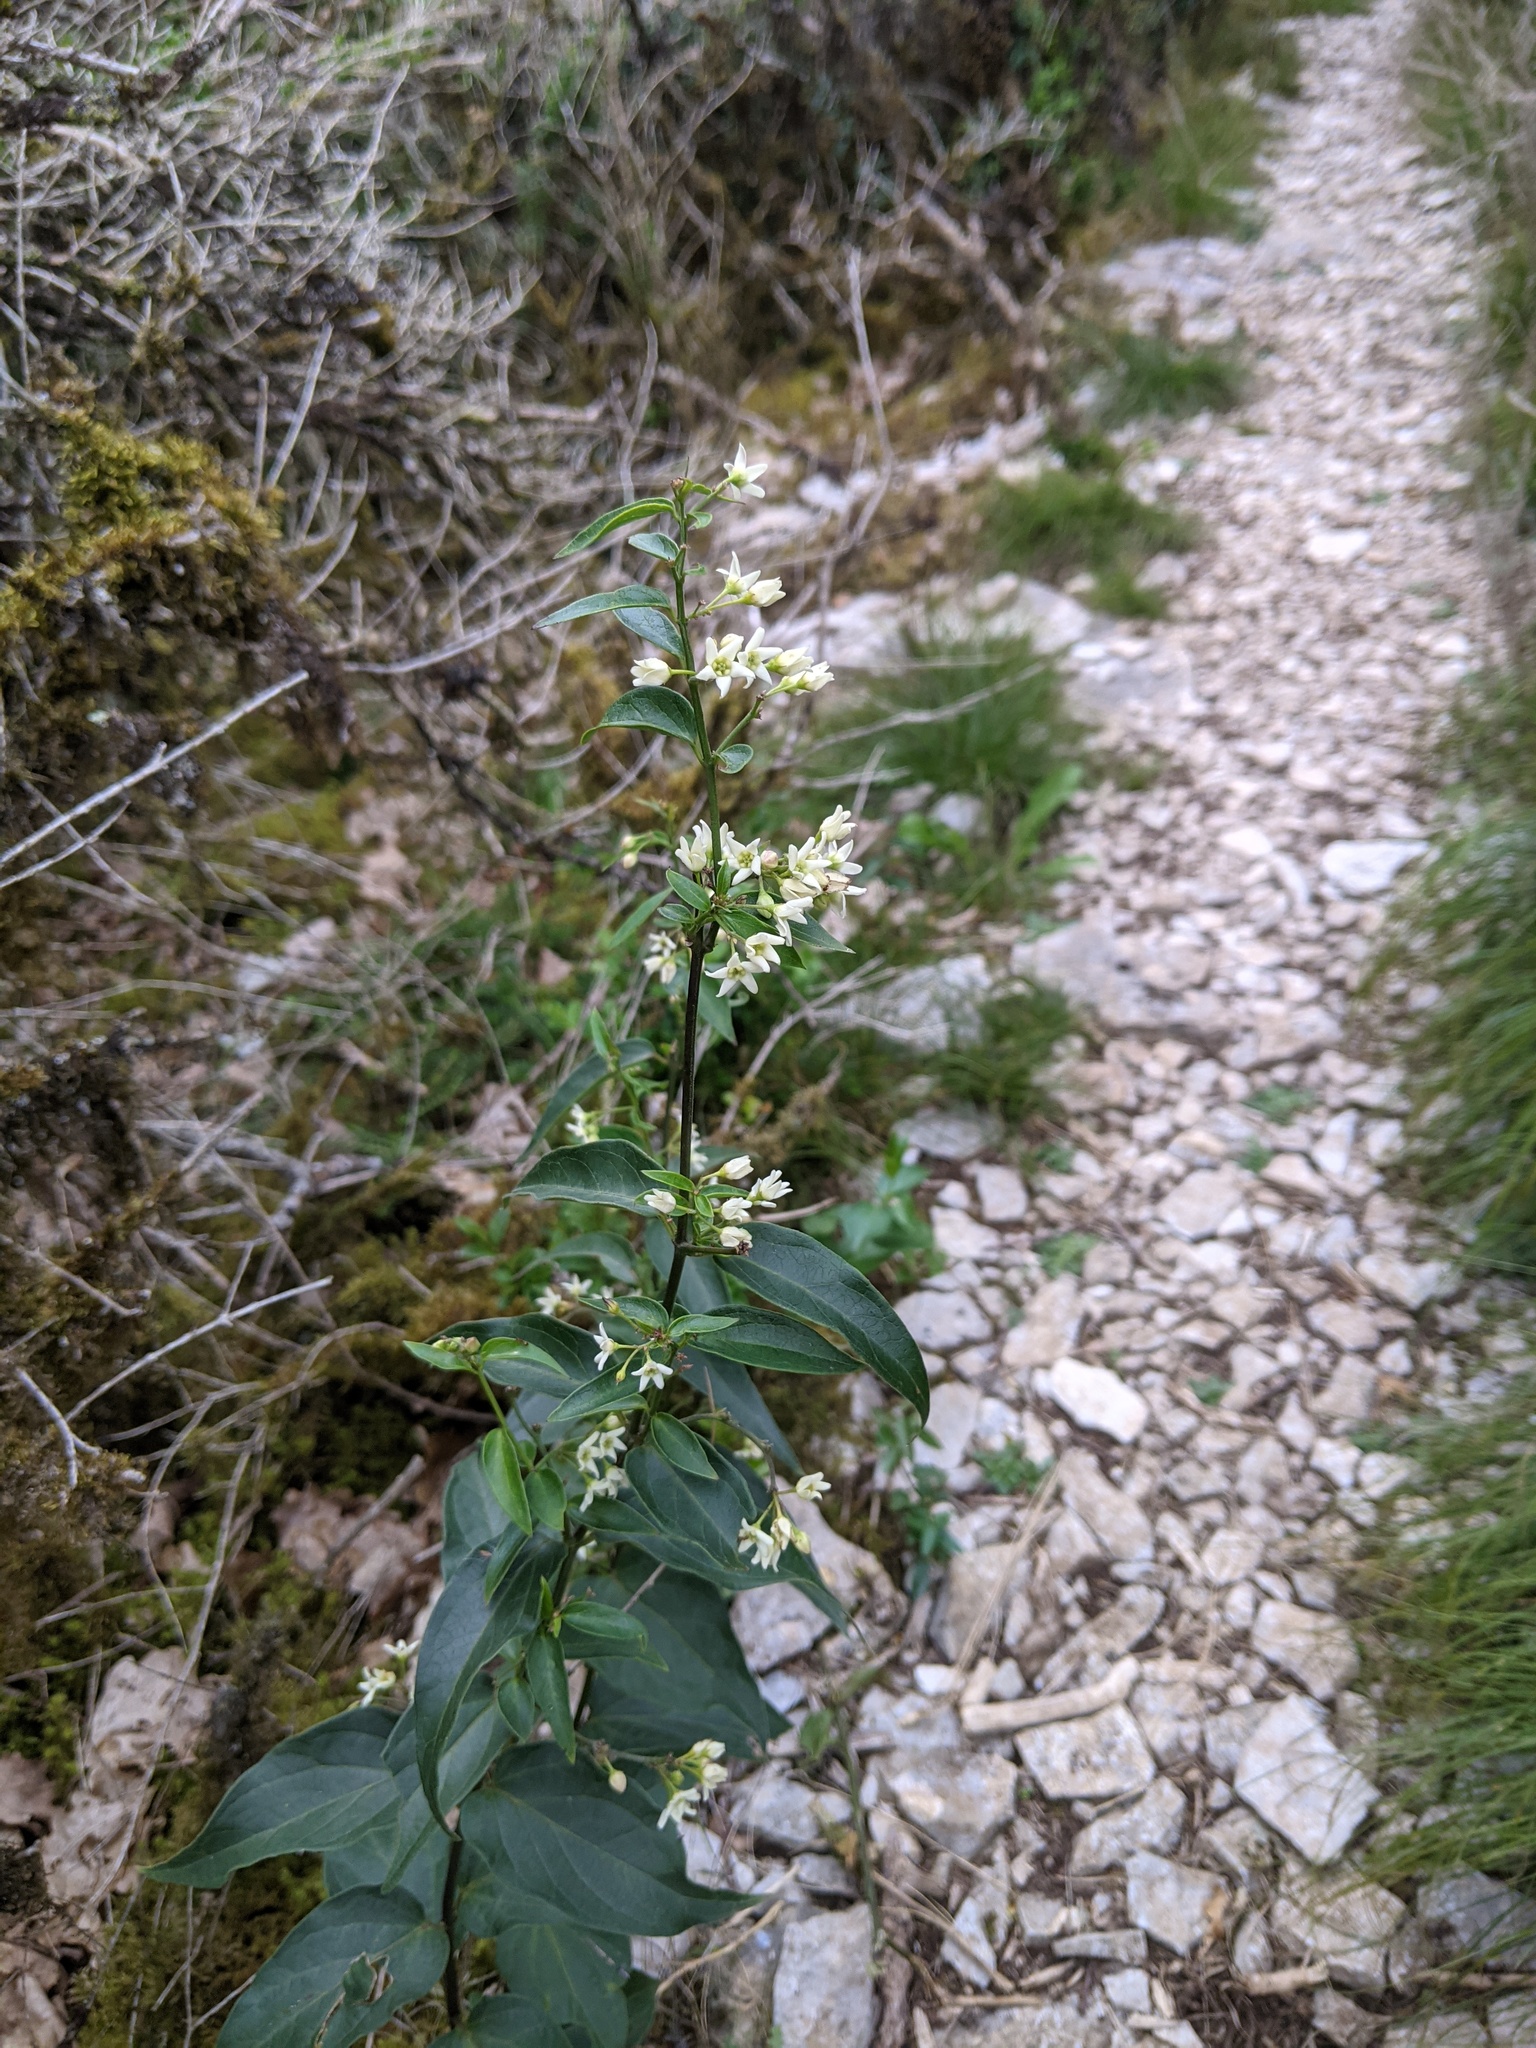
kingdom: Plantae
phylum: Tracheophyta
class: Magnoliopsida
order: Gentianales
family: Apocynaceae
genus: Vincetoxicum
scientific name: Vincetoxicum hirundinaria
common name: White swallowwort
